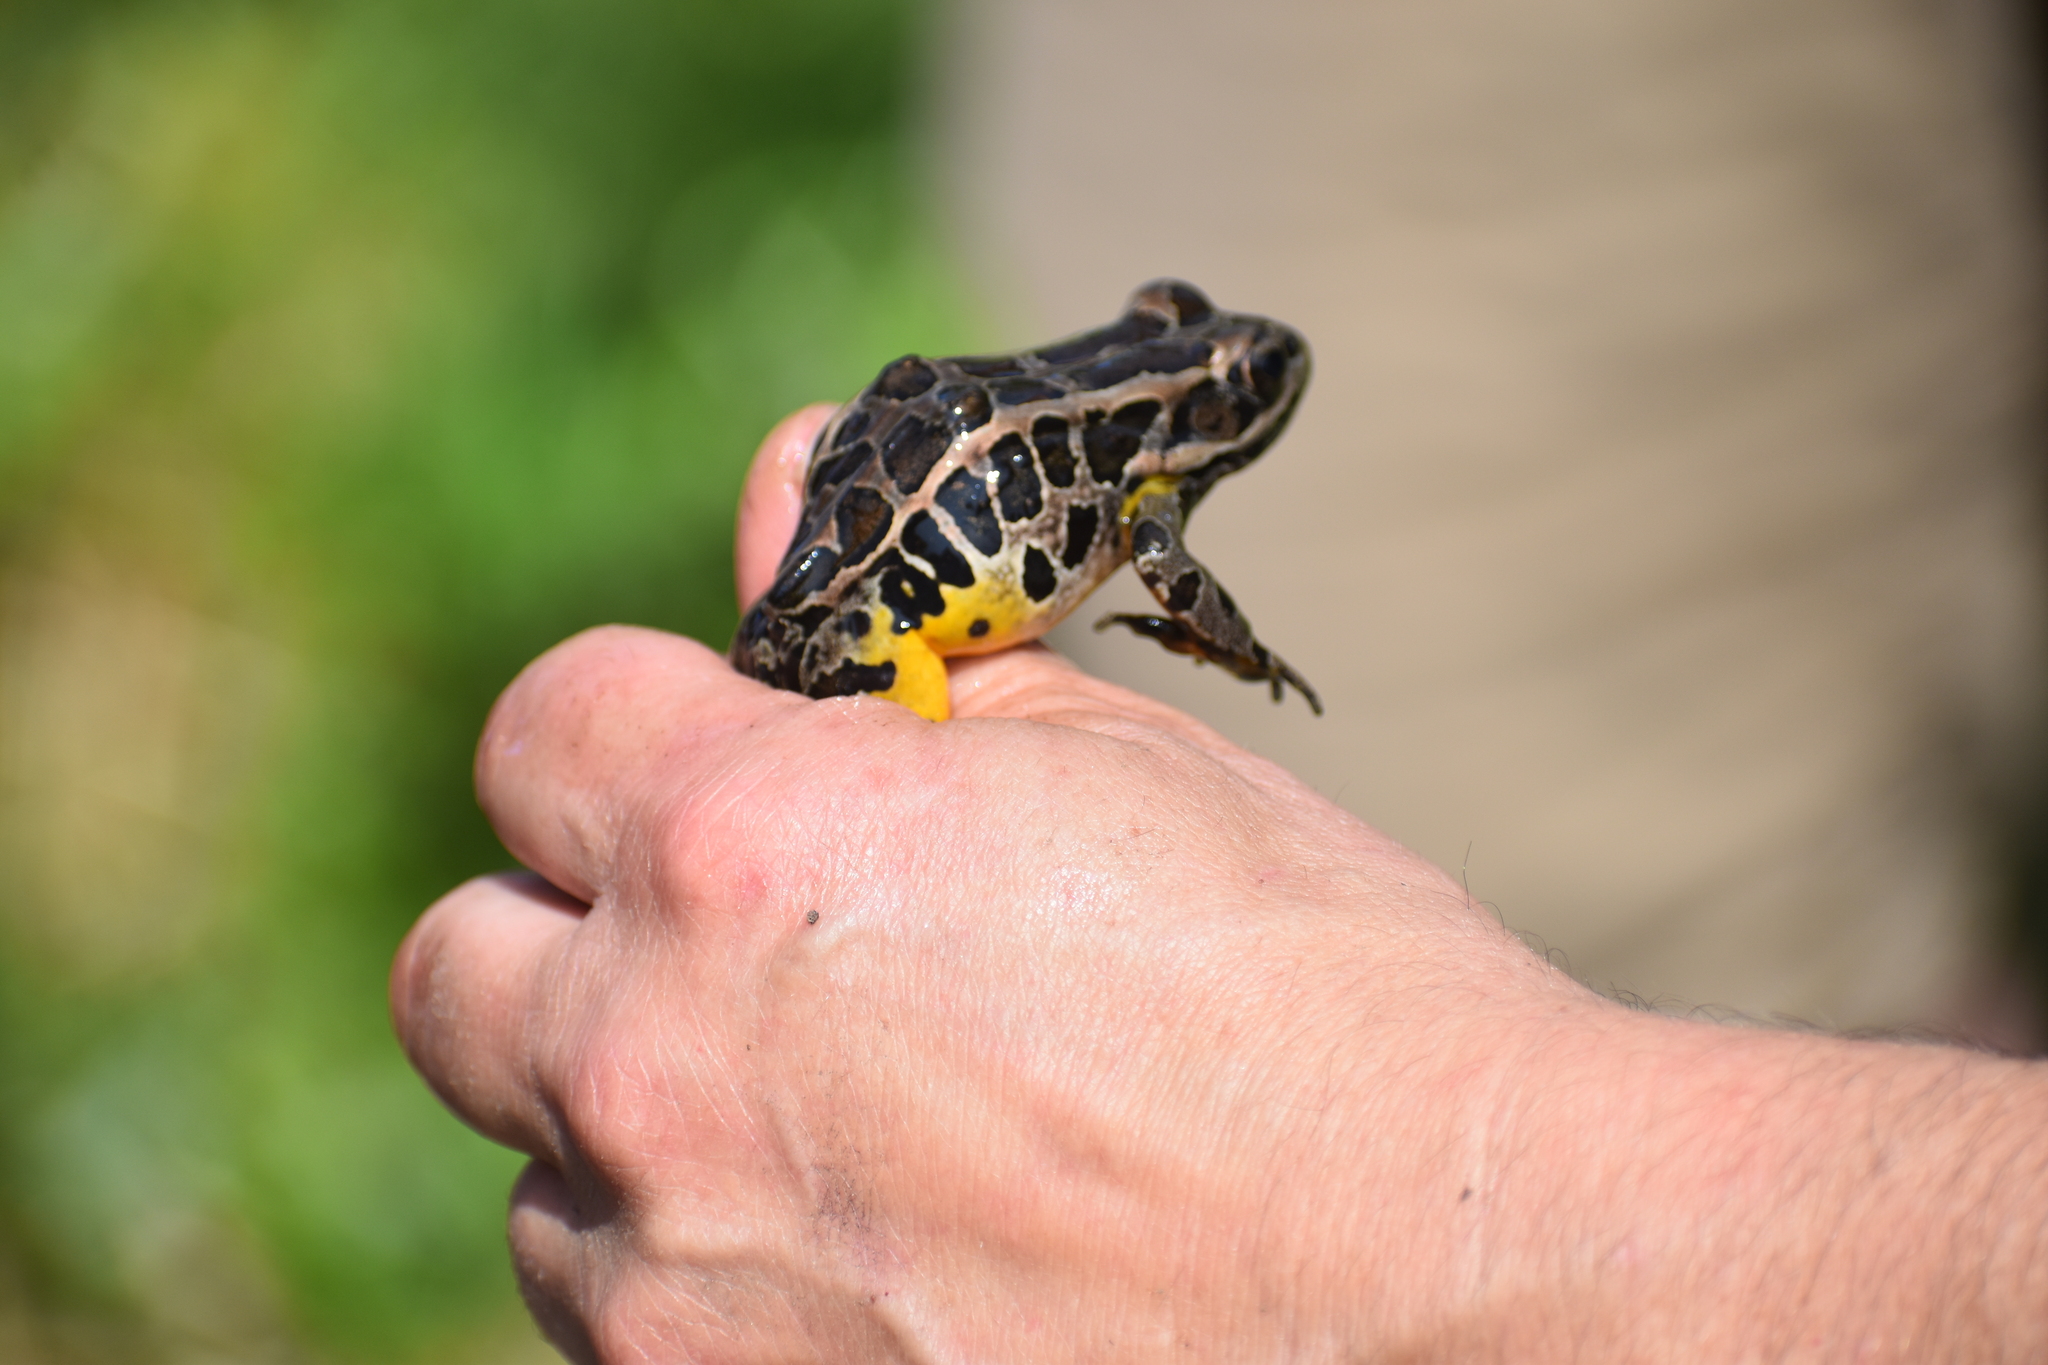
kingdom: Animalia
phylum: Chordata
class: Amphibia
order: Anura
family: Ranidae
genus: Lithobates
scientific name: Lithobates palustris
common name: Pickerel frog
